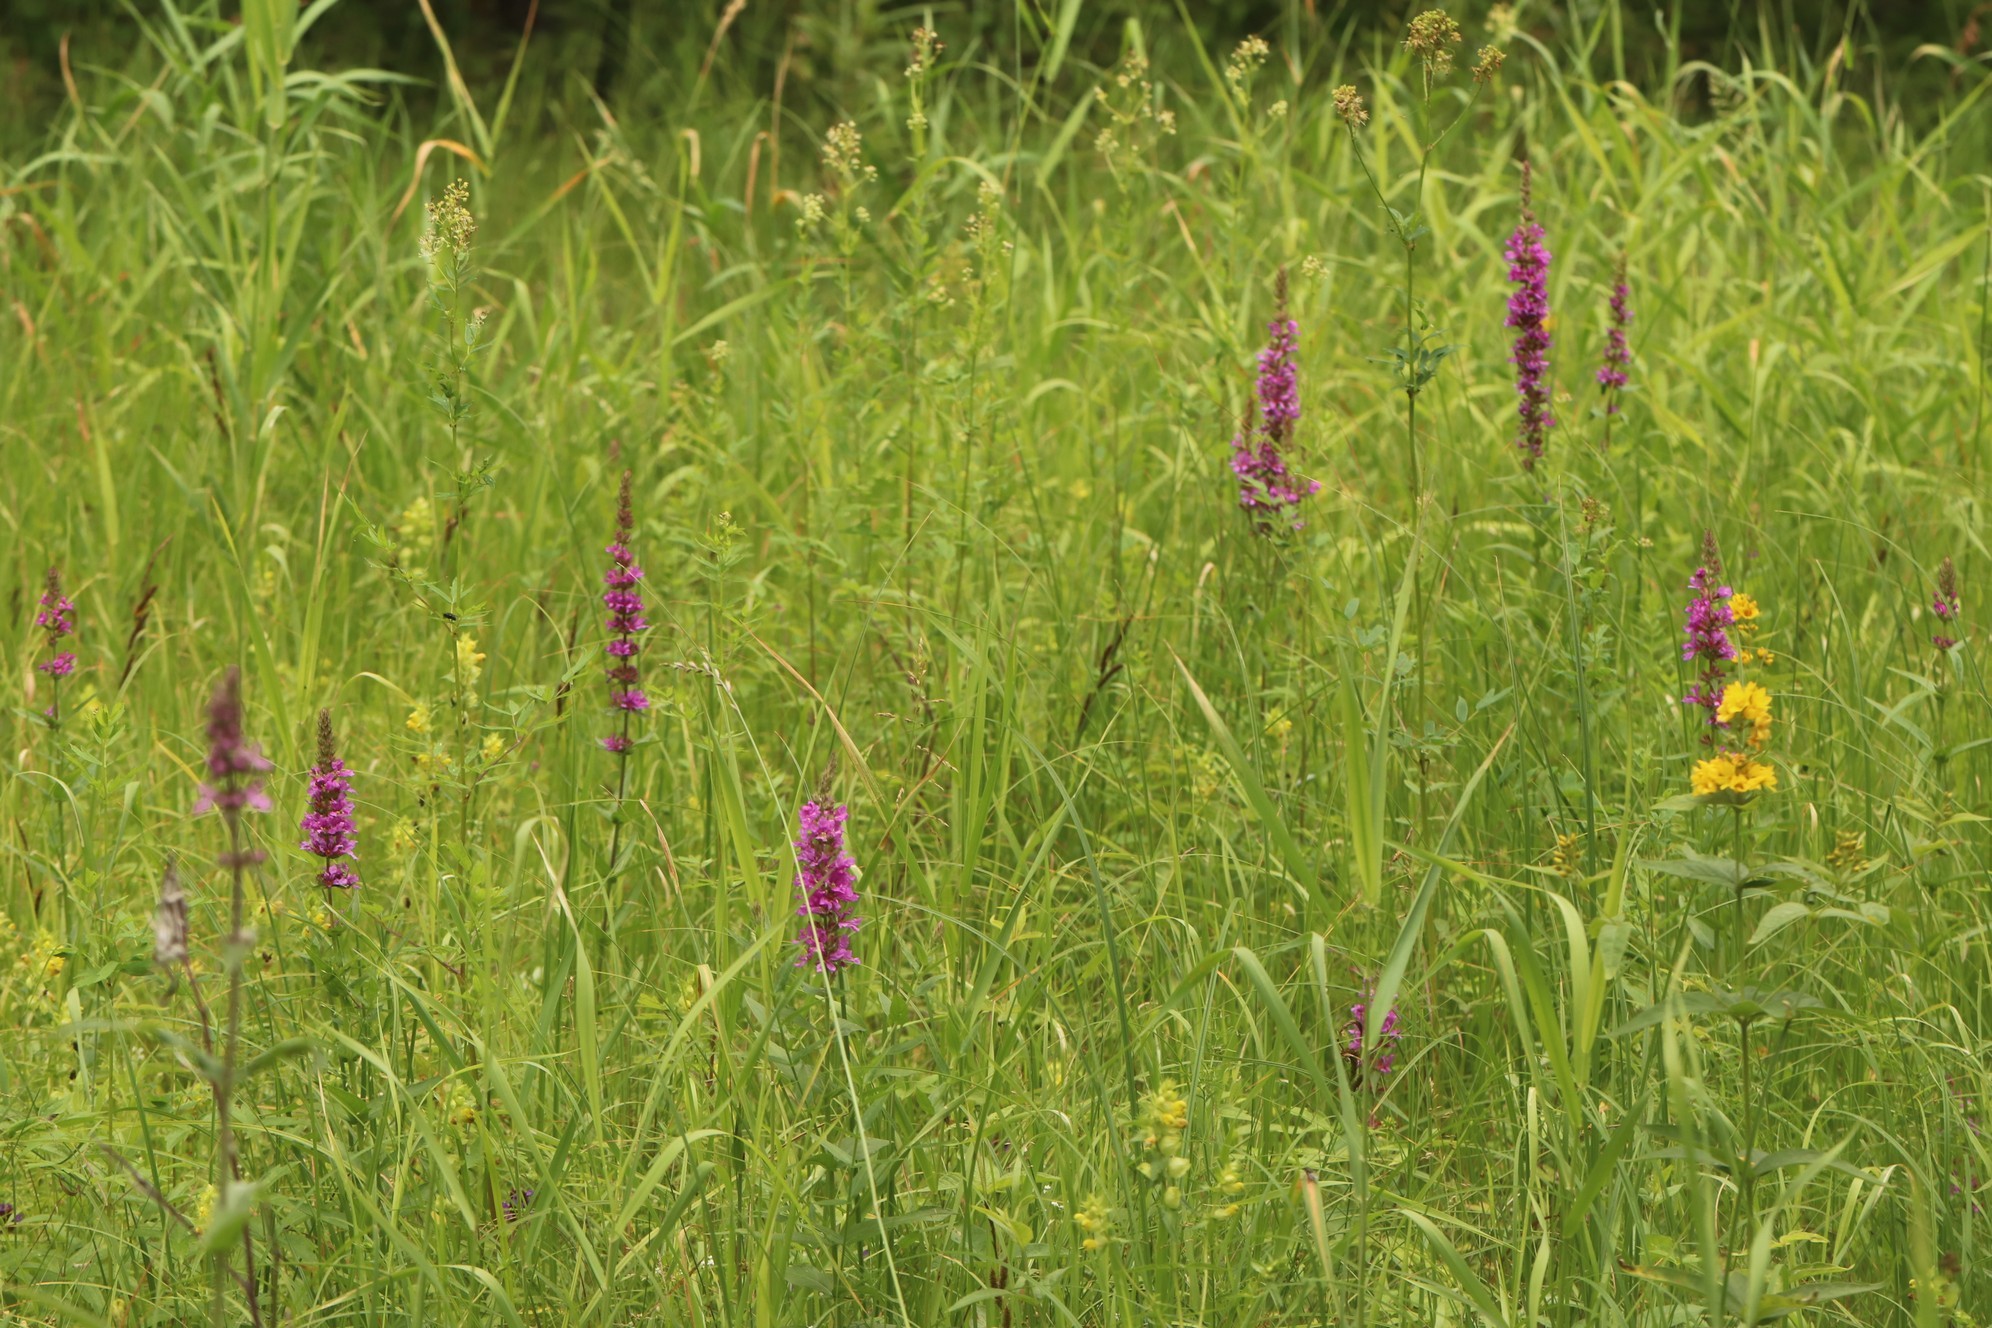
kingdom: Plantae
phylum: Tracheophyta
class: Magnoliopsida
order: Myrtales
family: Lythraceae
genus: Lythrum
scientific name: Lythrum salicaria
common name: Purple loosestrife
